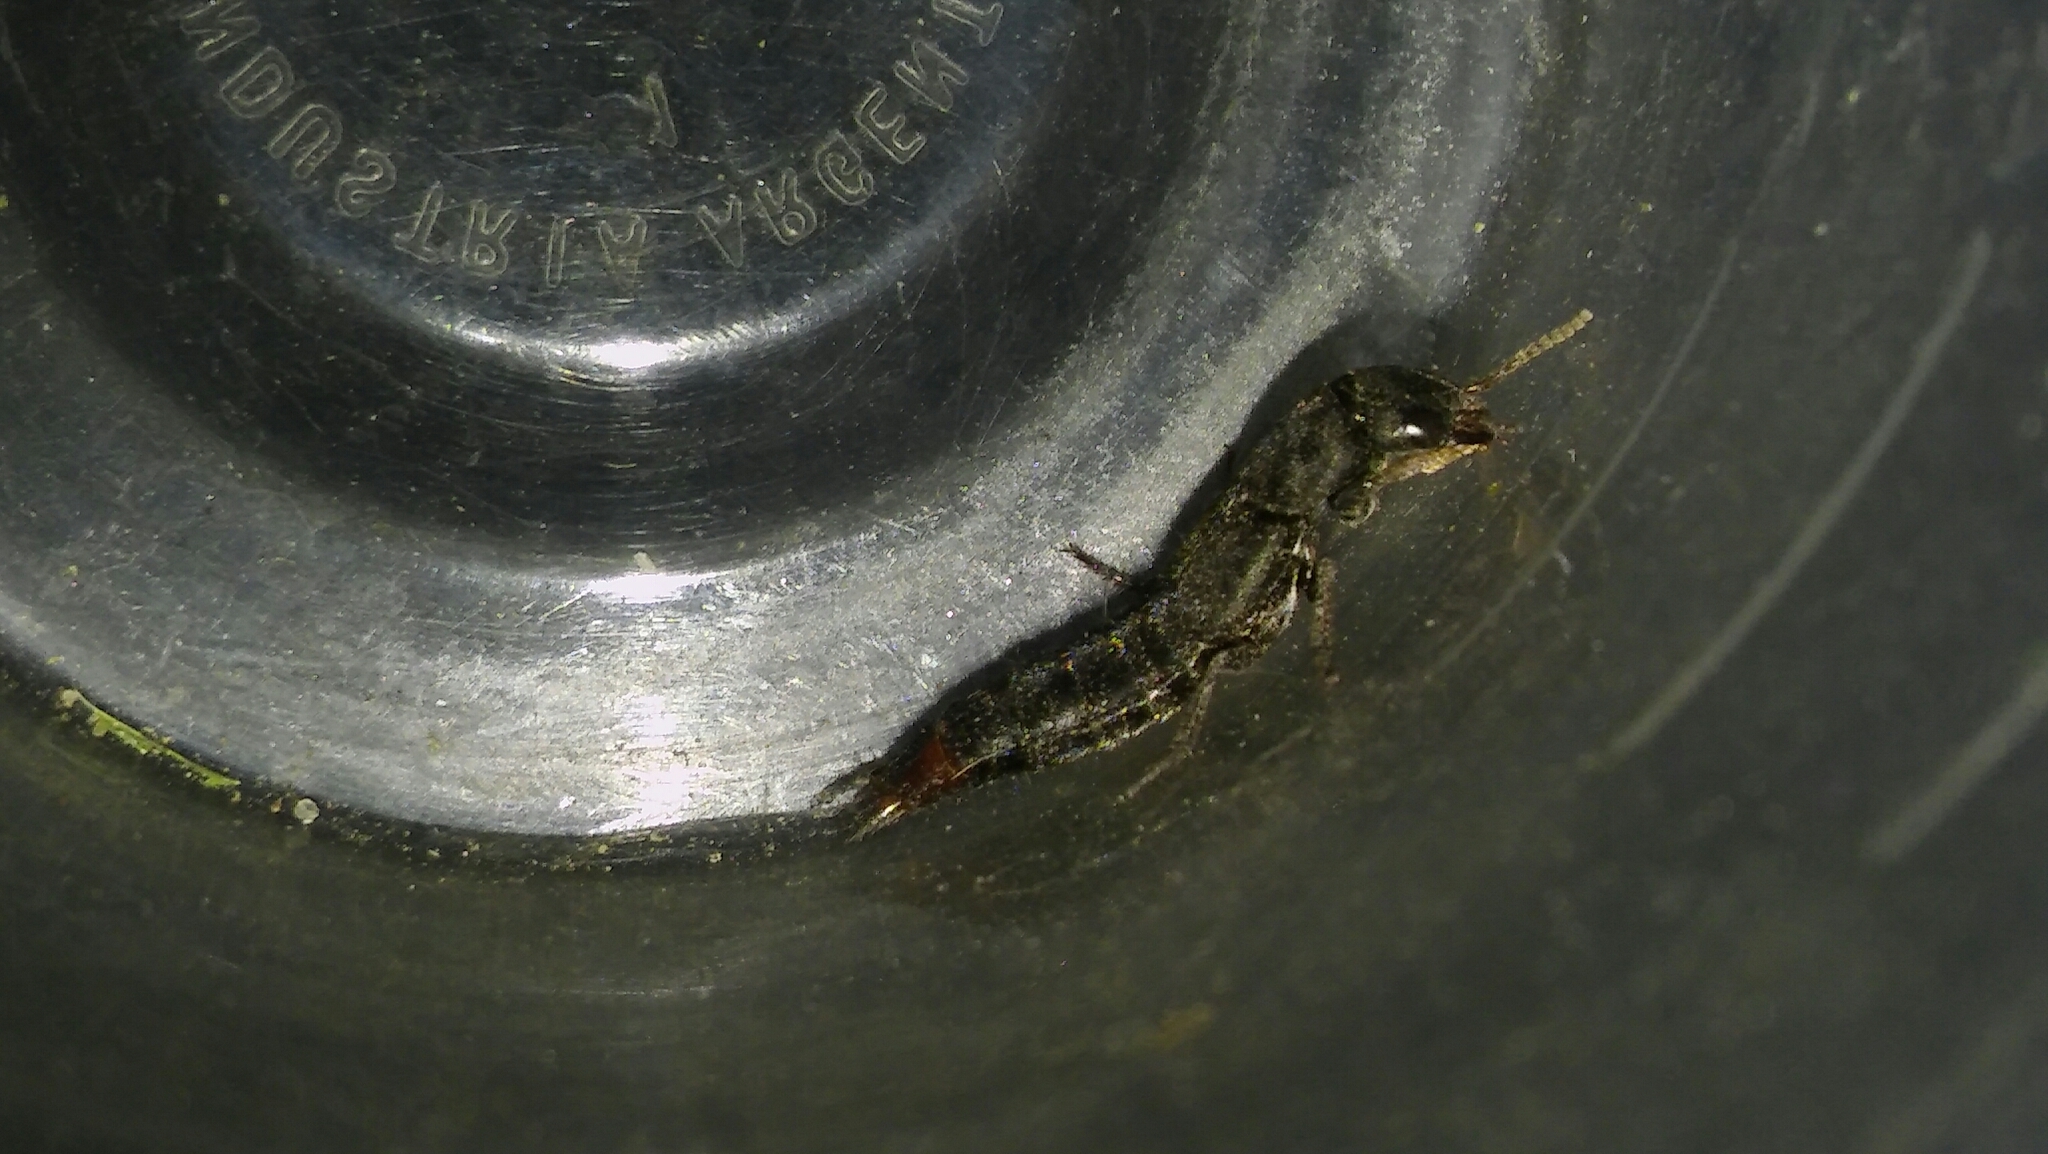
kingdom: Animalia
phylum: Arthropoda
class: Insecta
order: Coleoptera
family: Staphylinidae
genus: Platydracus
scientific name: Platydracus scabrosus
